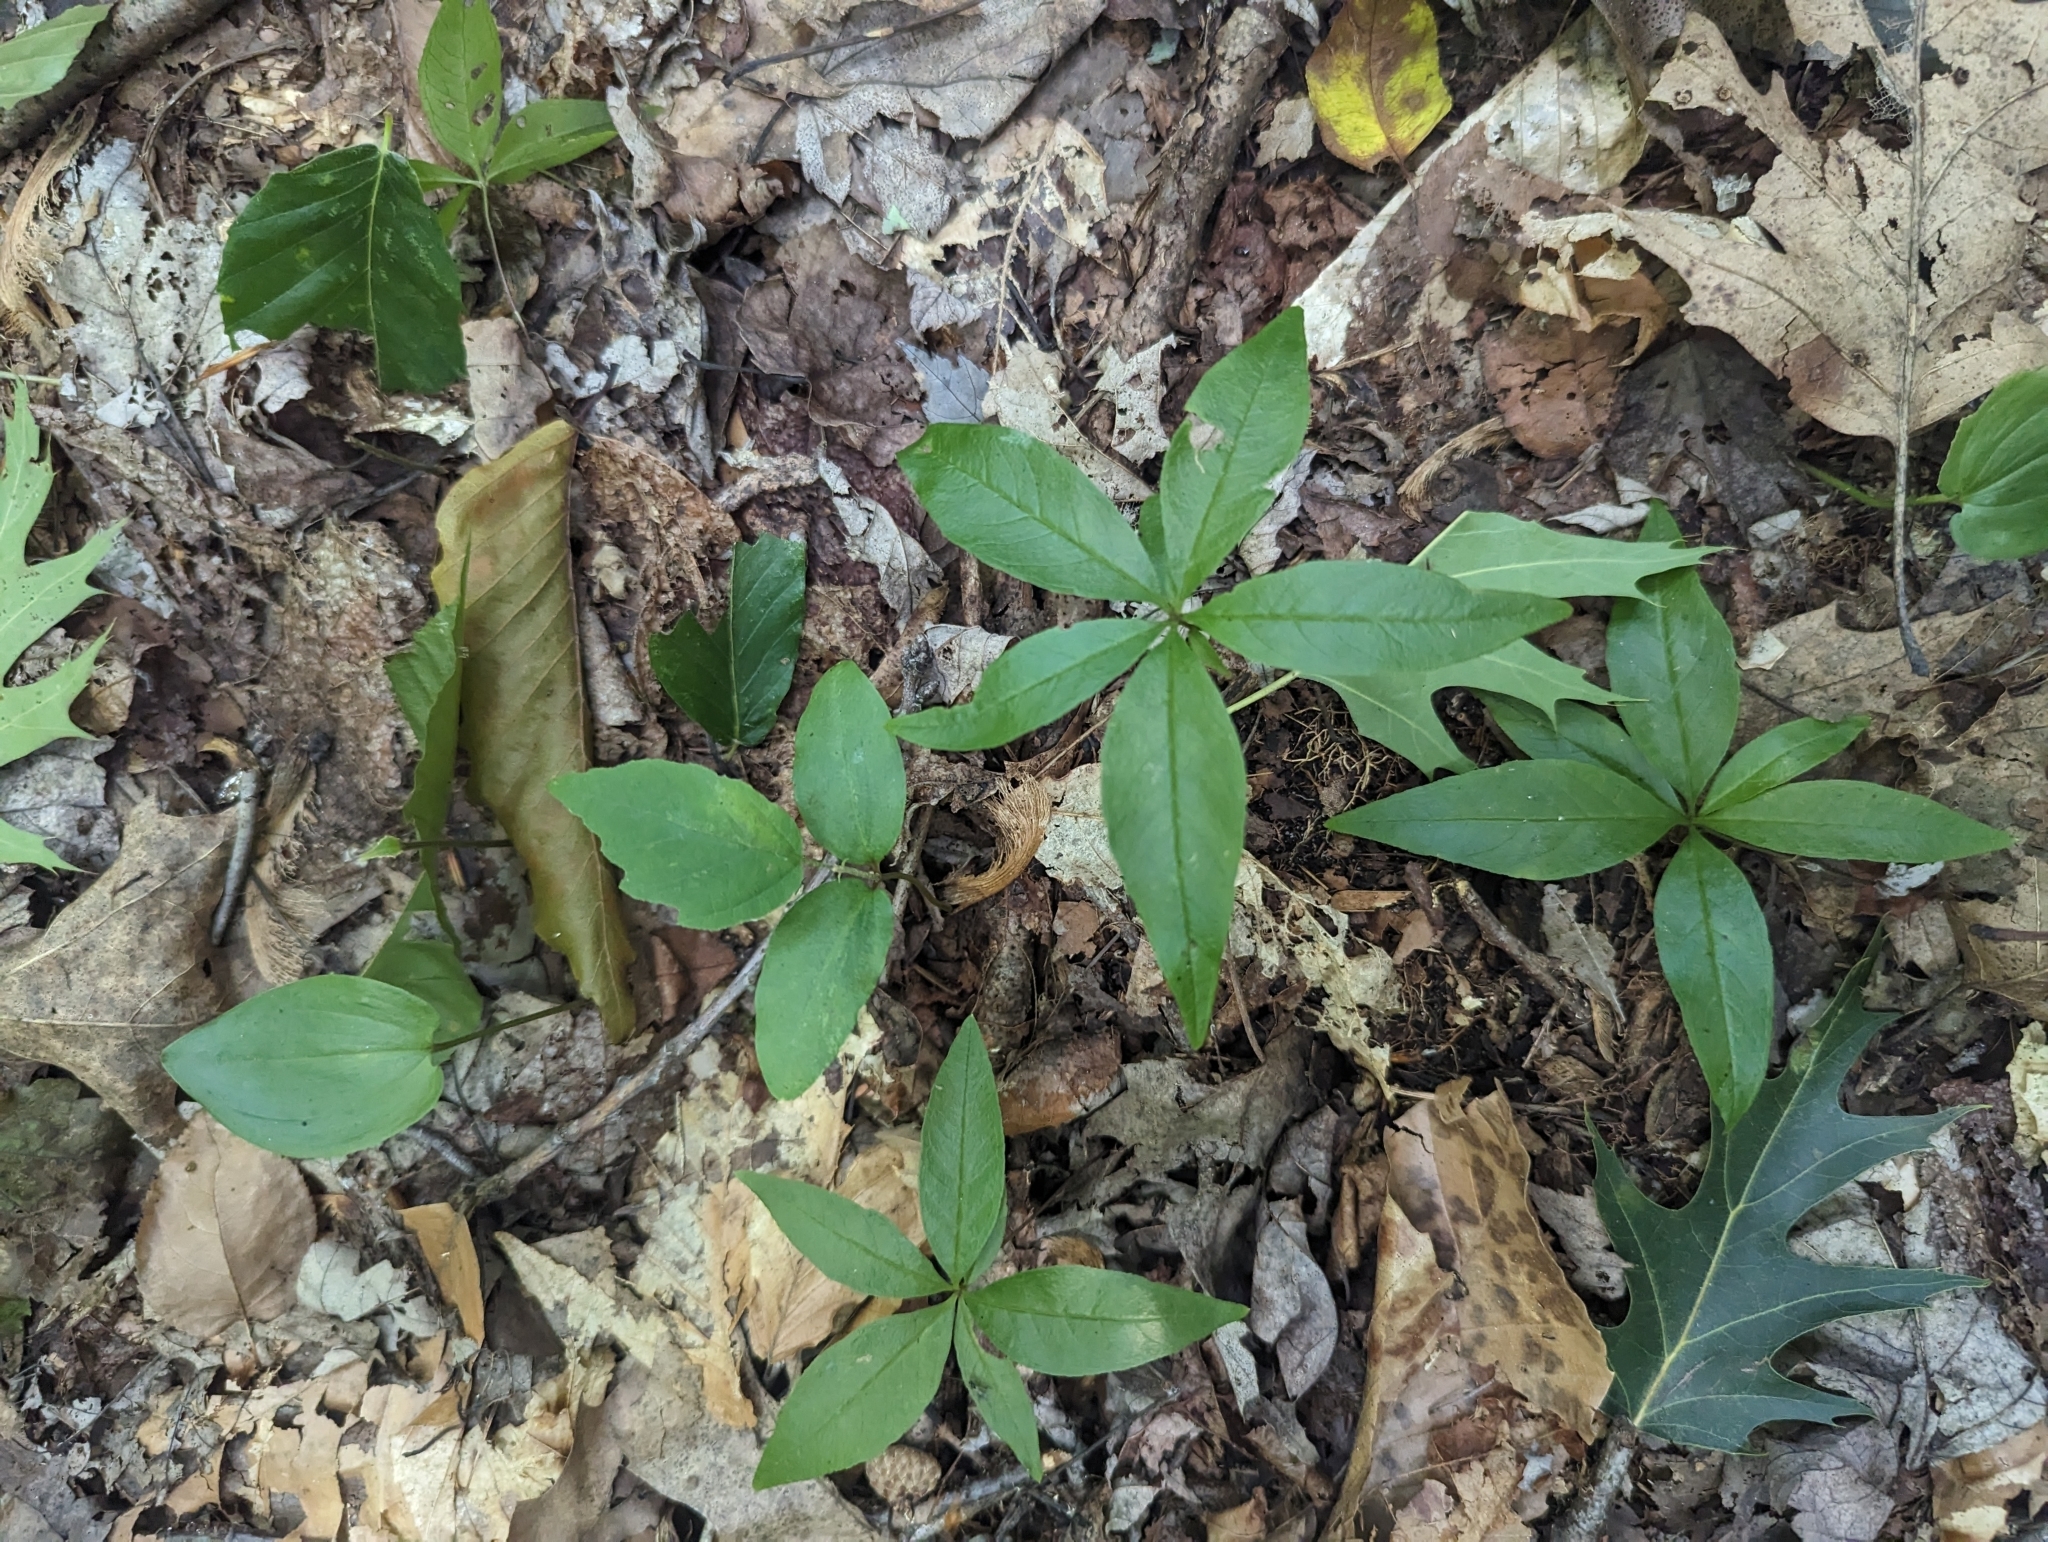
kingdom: Plantae
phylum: Tracheophyta
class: Magnoliopsida
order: Ericales
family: Primulaceae
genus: Lysimachia
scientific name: Lysimachia borealis
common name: American starflower
